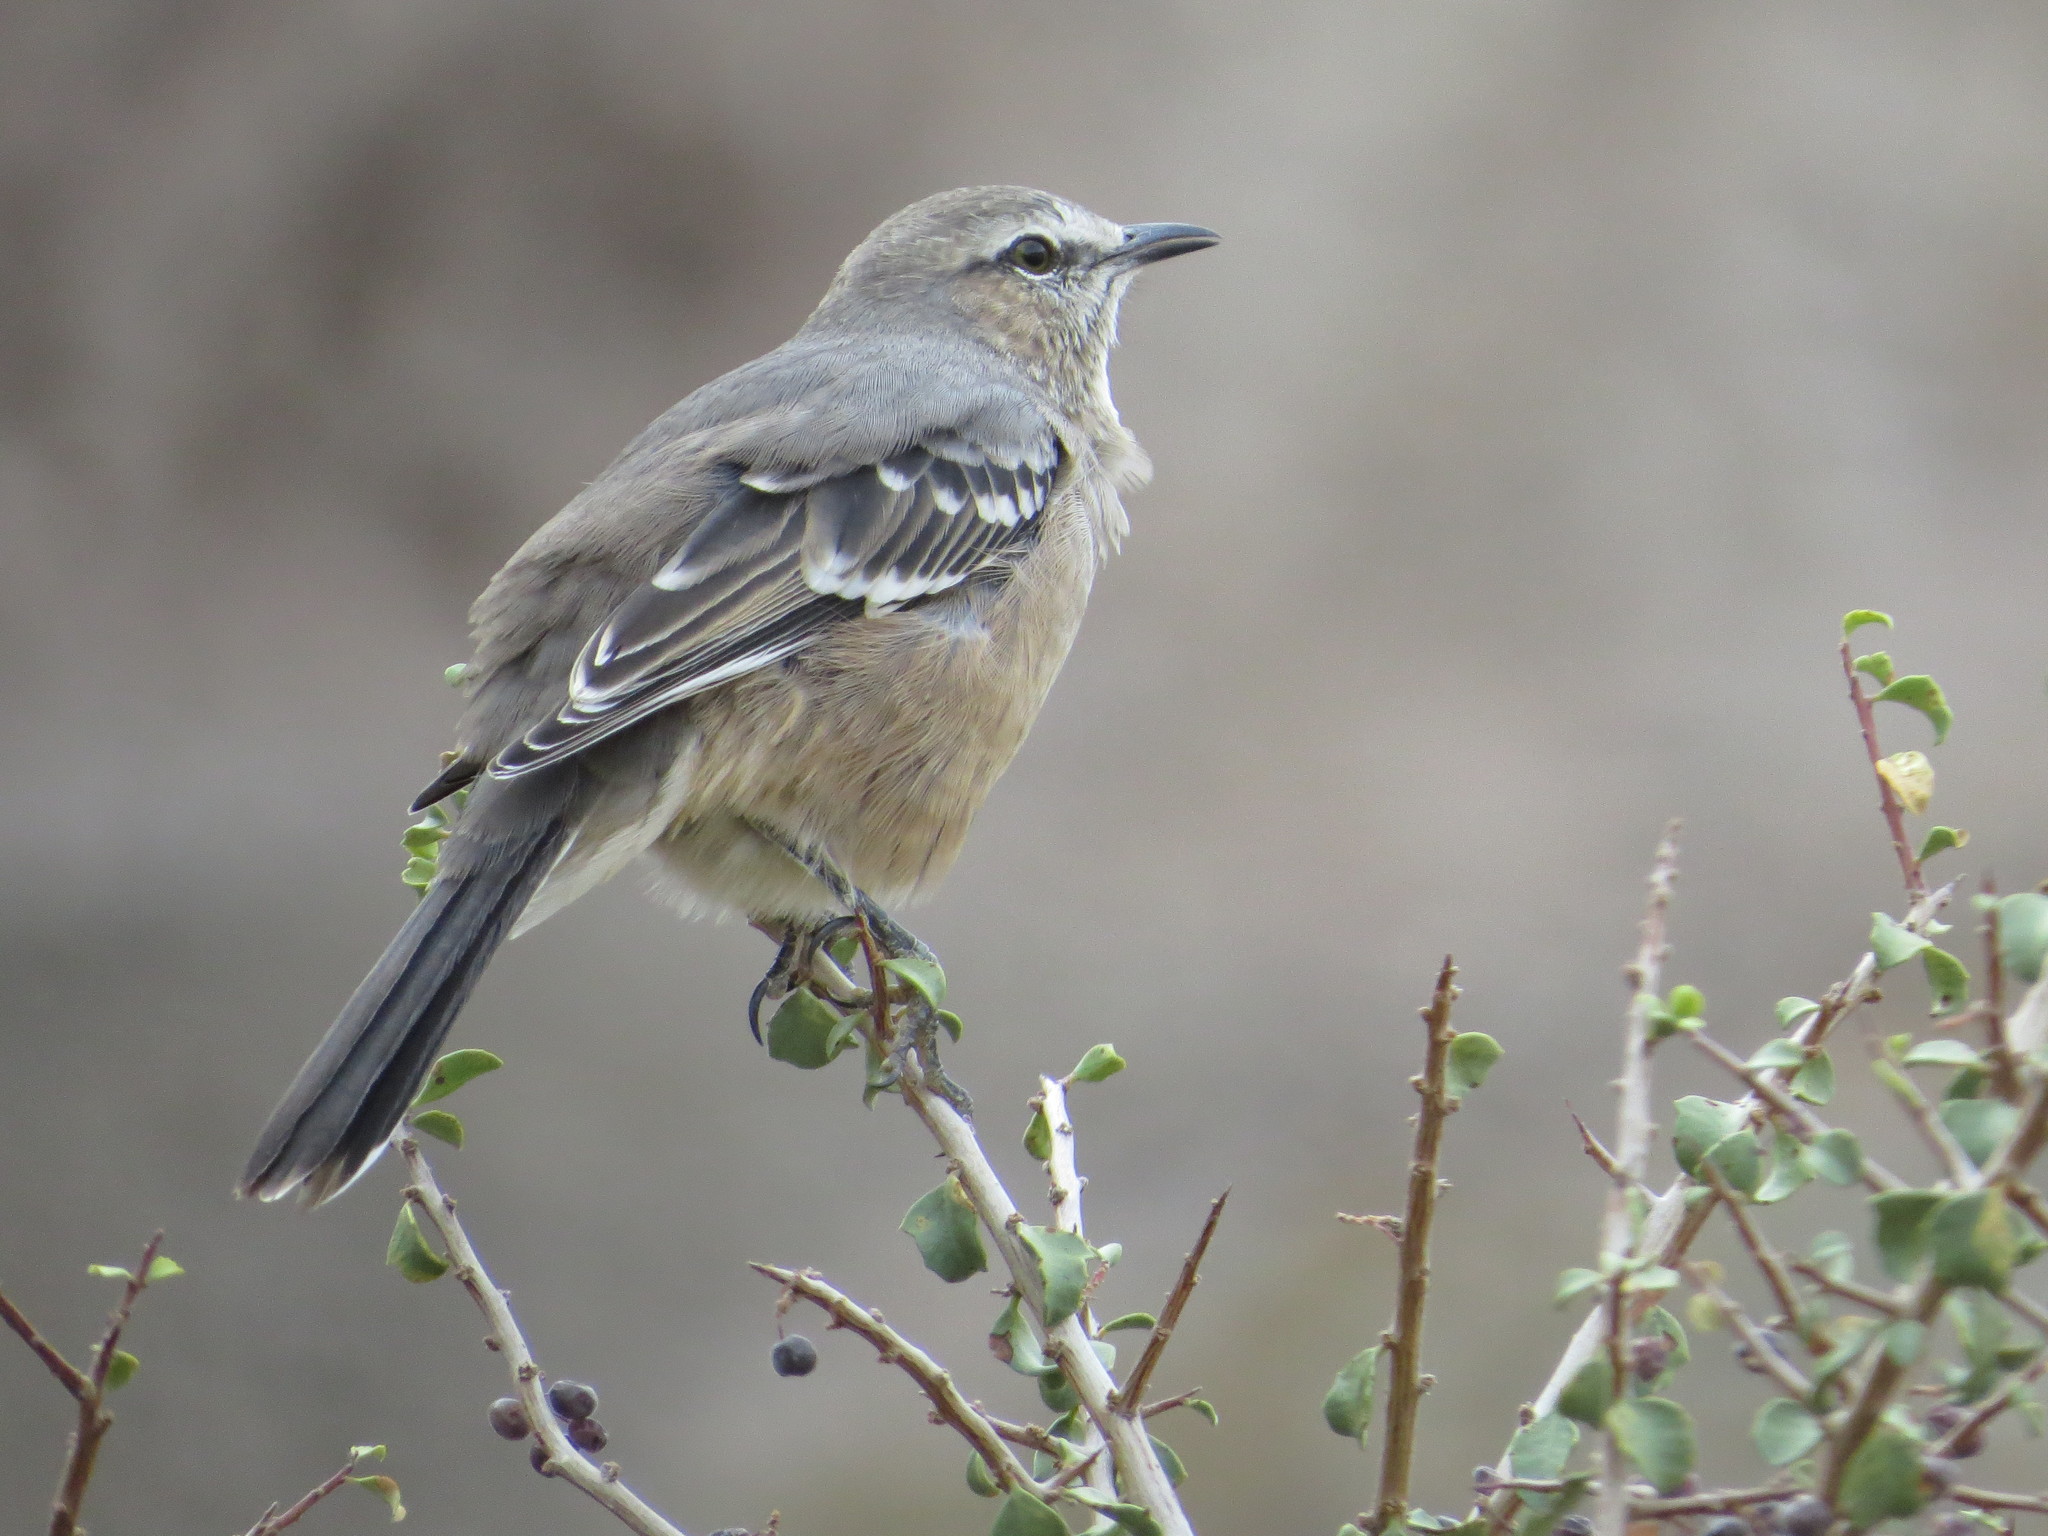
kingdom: Animalia
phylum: Chordata
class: Aves
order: Passeriformes
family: Mimidae
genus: Mimus
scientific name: Mimus patagonicus
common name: Patagonian mockingbird
